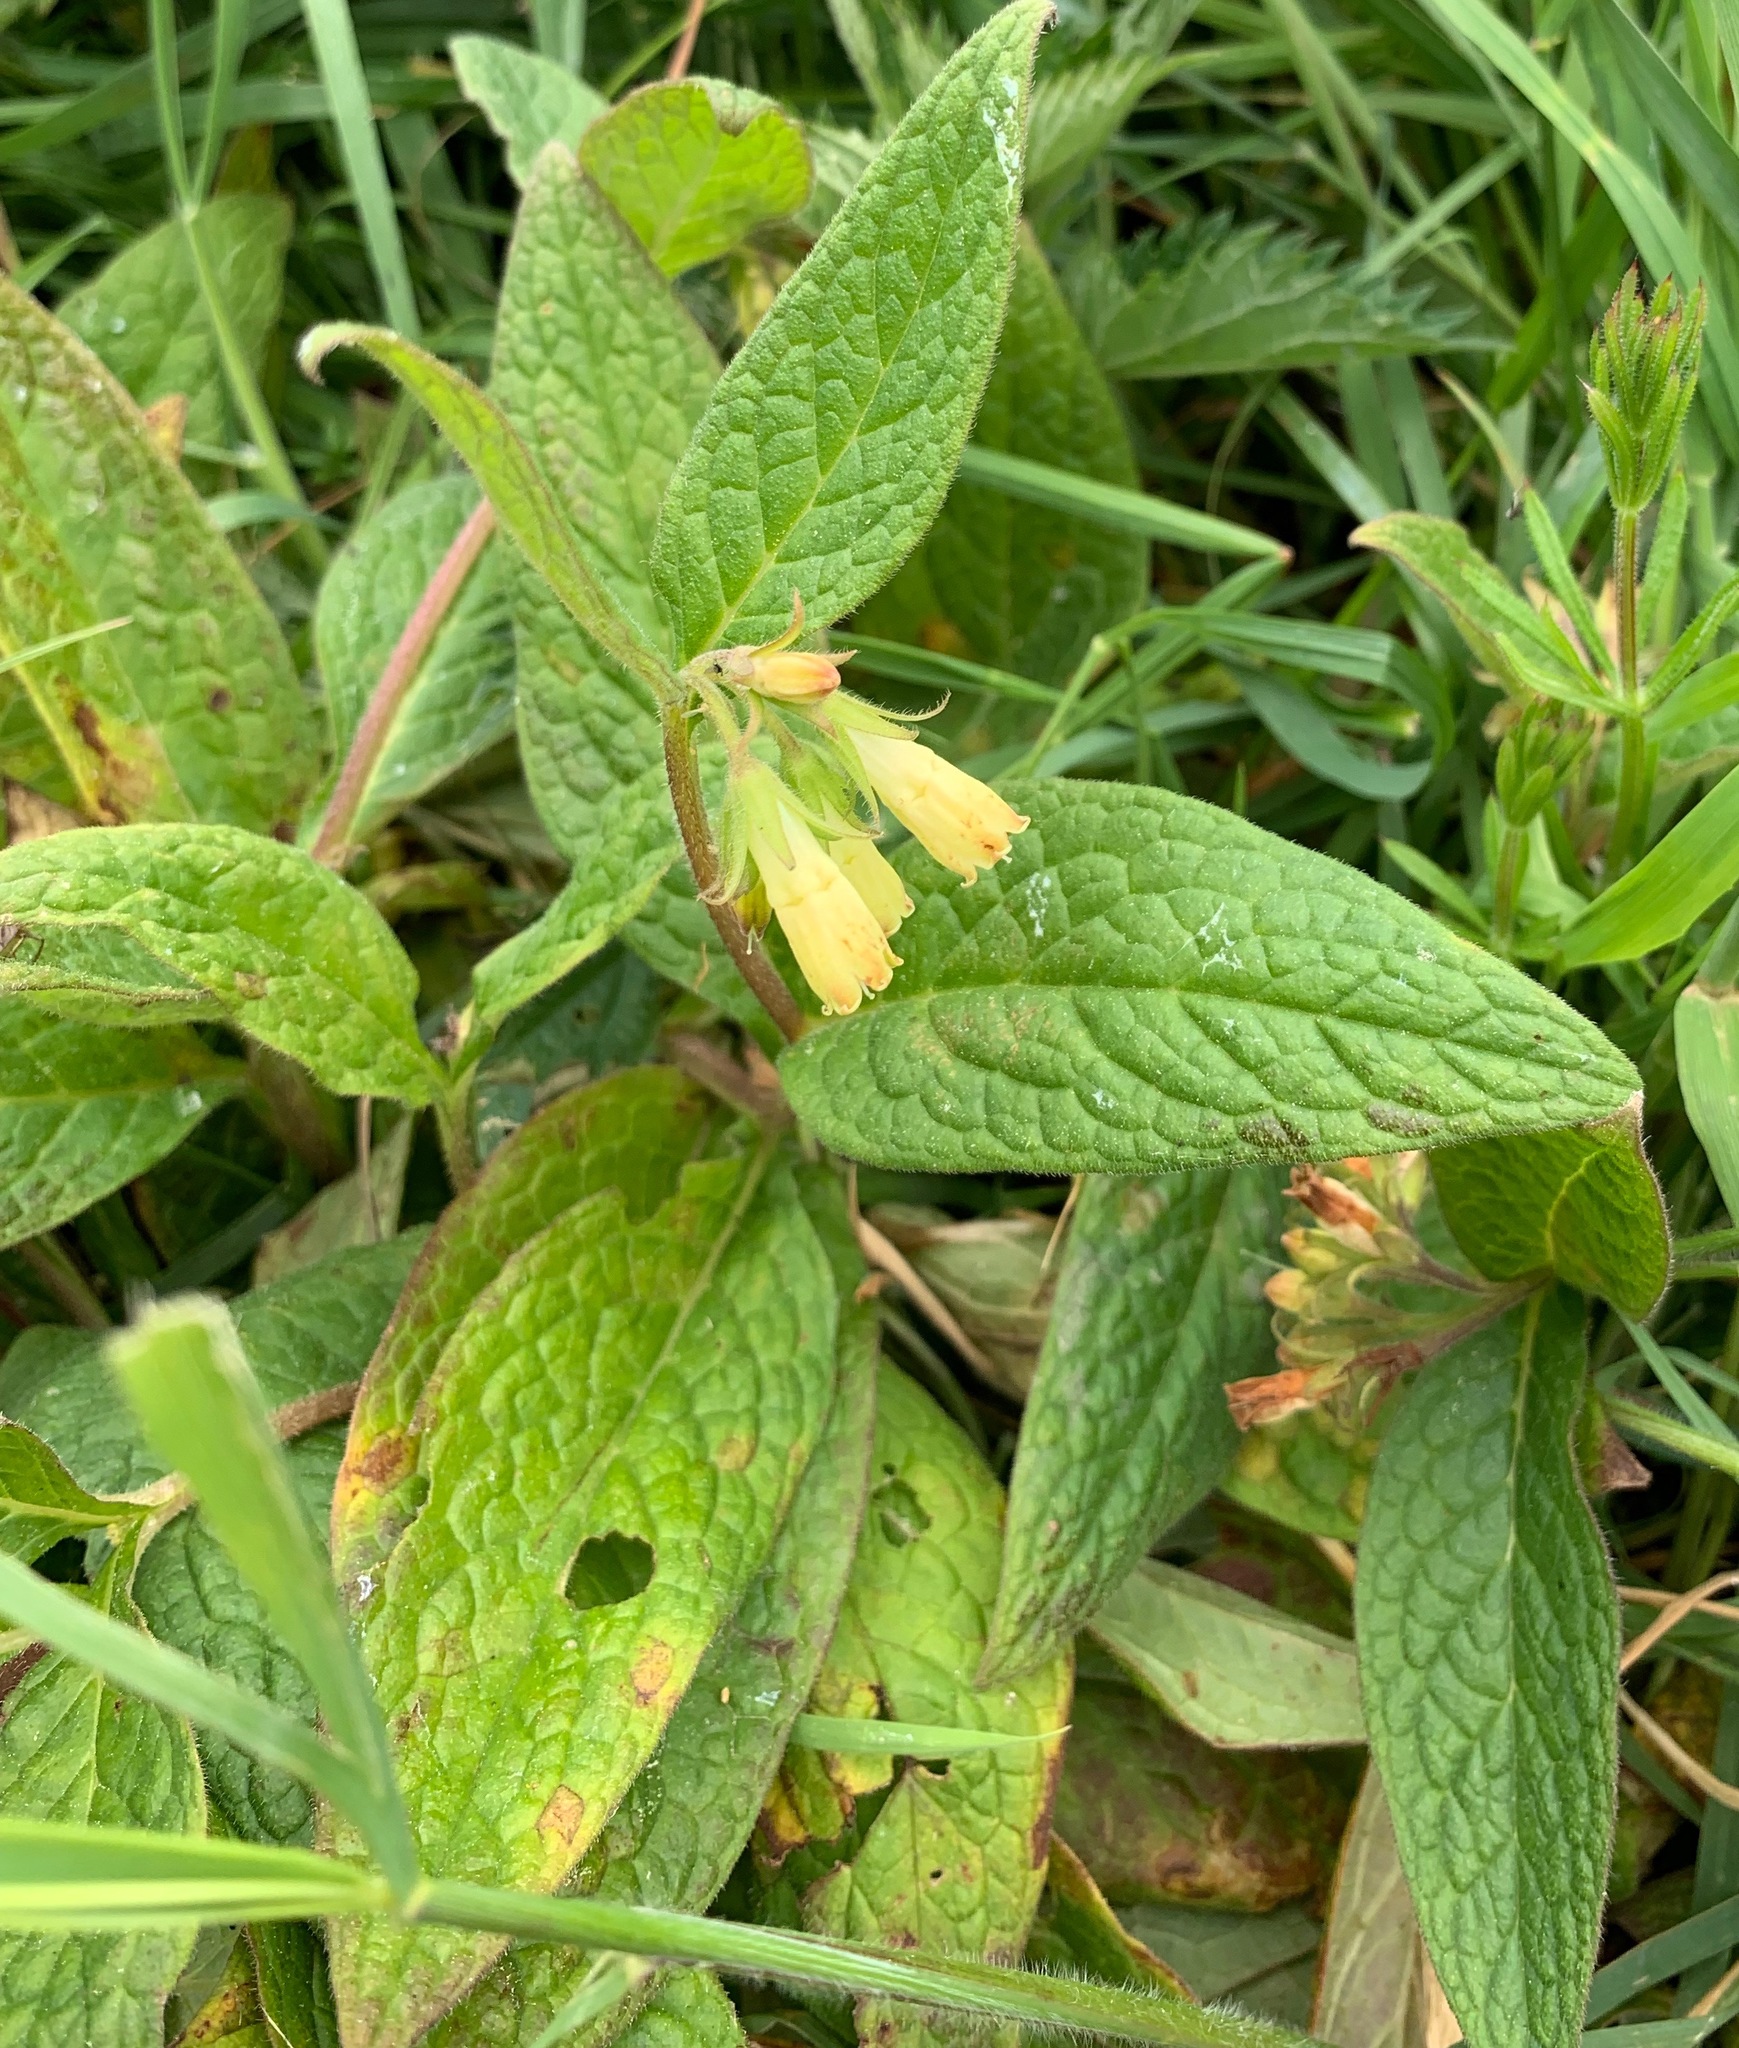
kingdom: Plantae
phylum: Tracheophyta
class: Magnoliopsida
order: Boraginales
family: Boraginaceae
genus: Symphytum
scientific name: Symphytum tuberosum
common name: Tuberous comfrey
